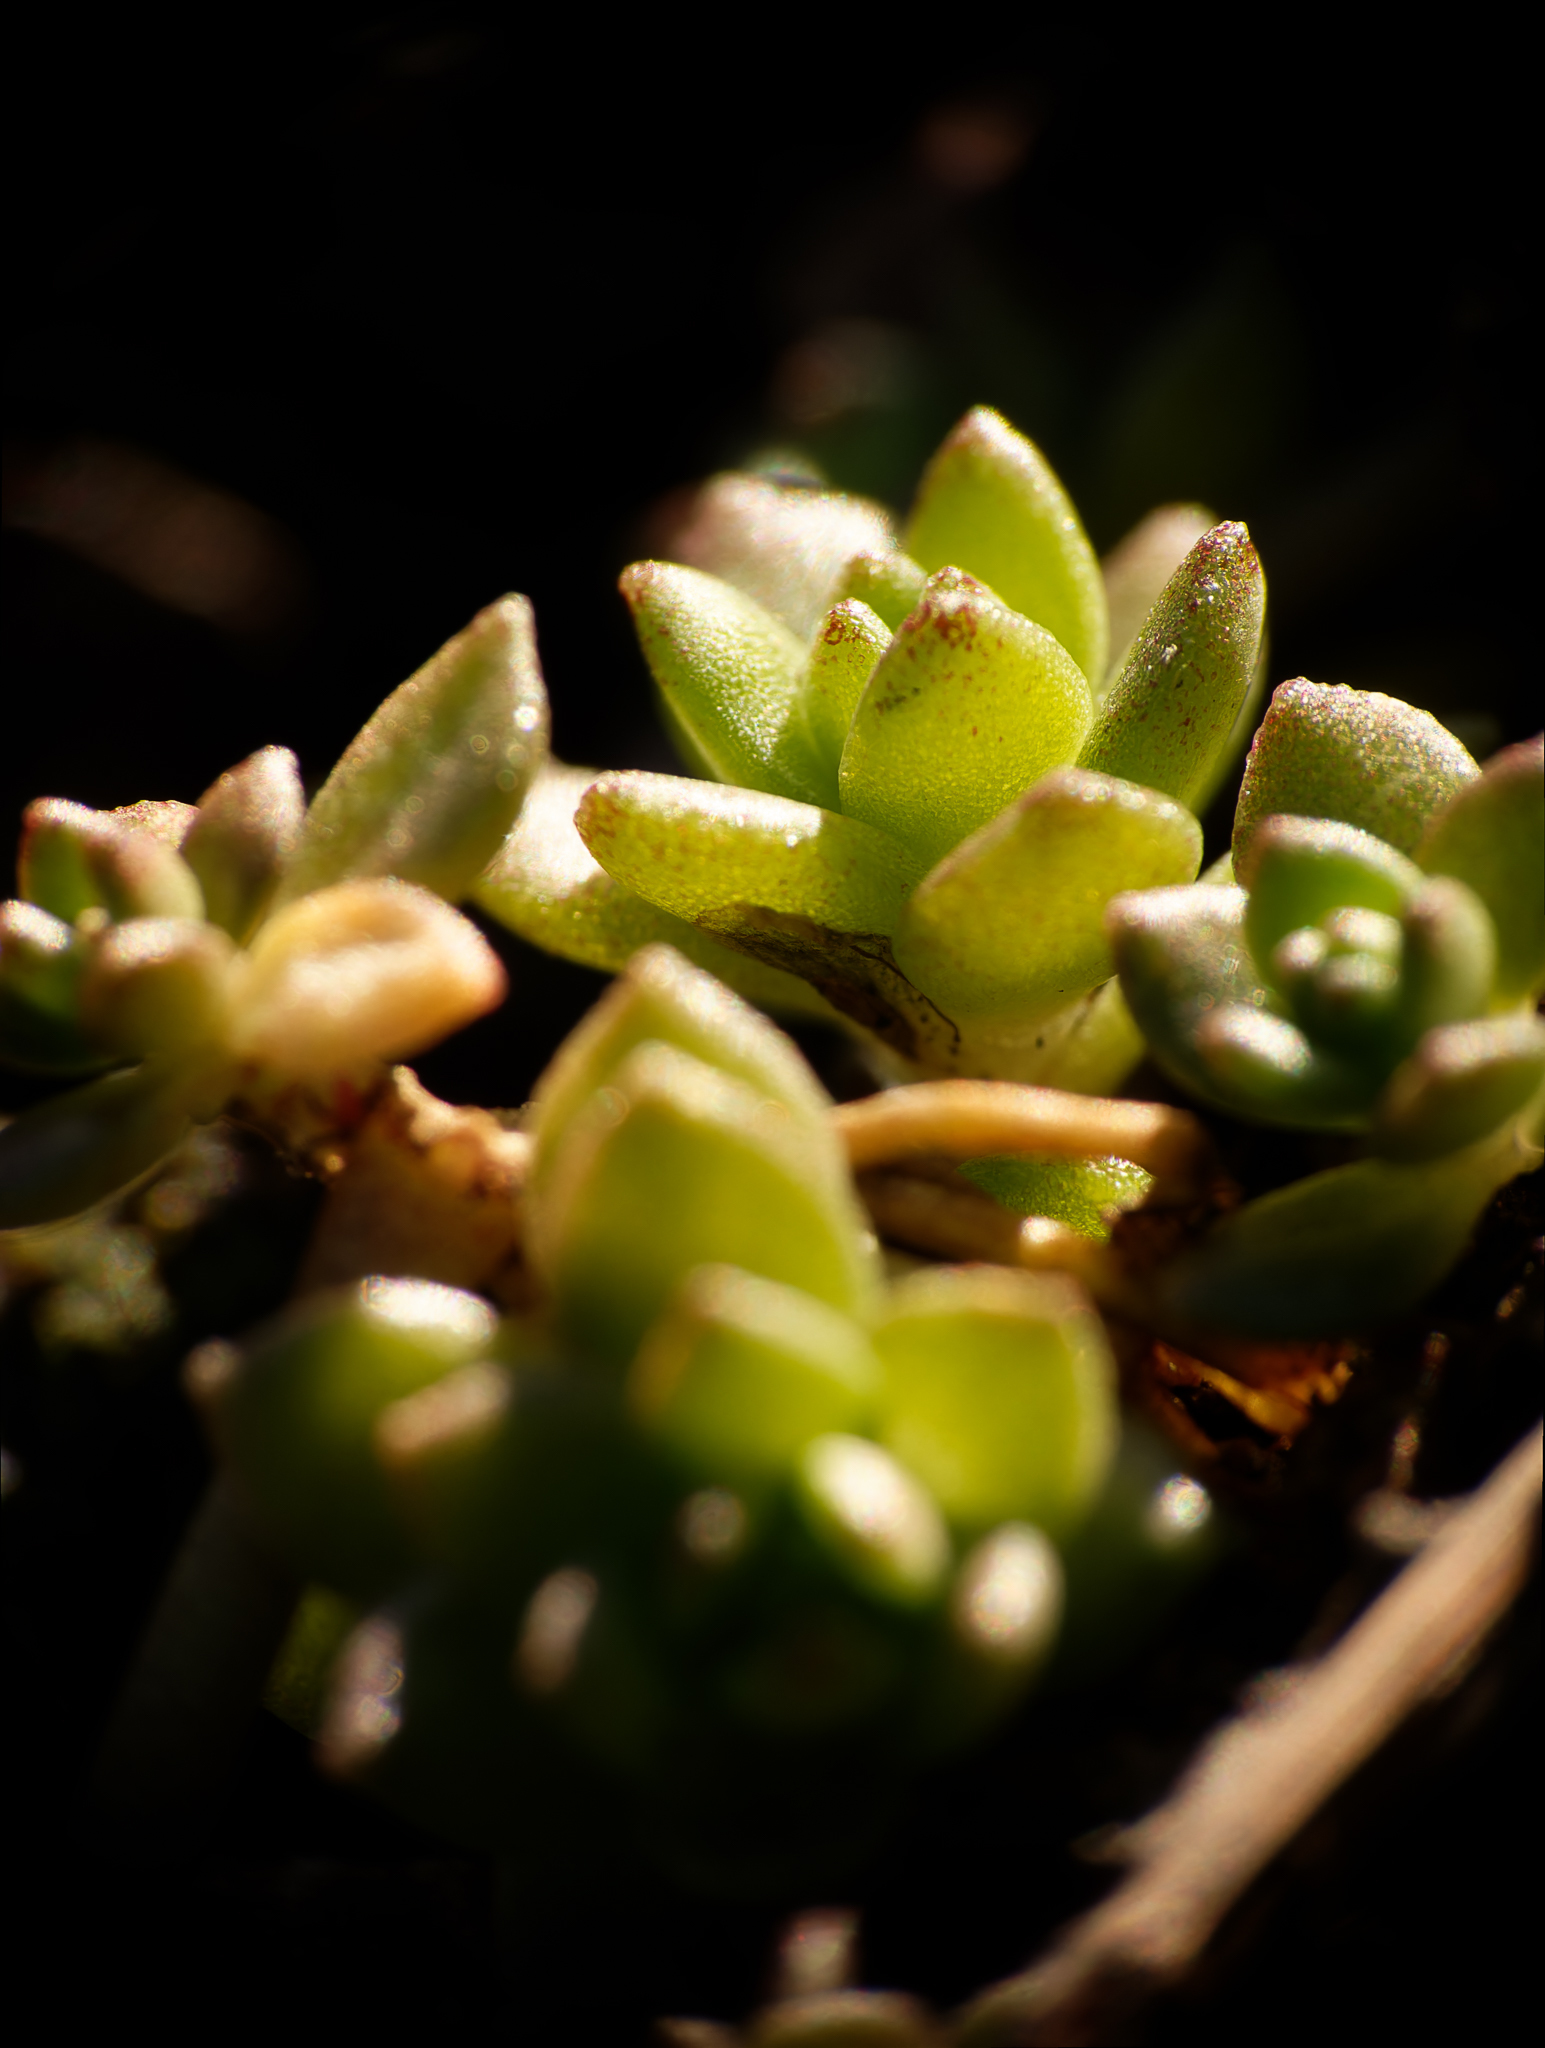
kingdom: Plantae
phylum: Tracheophyta
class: Magnoliopsida
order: Saxifragales
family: Crassulaceae
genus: Sedum
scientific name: Sedum sarmentosum
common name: Stringy stonecrop
